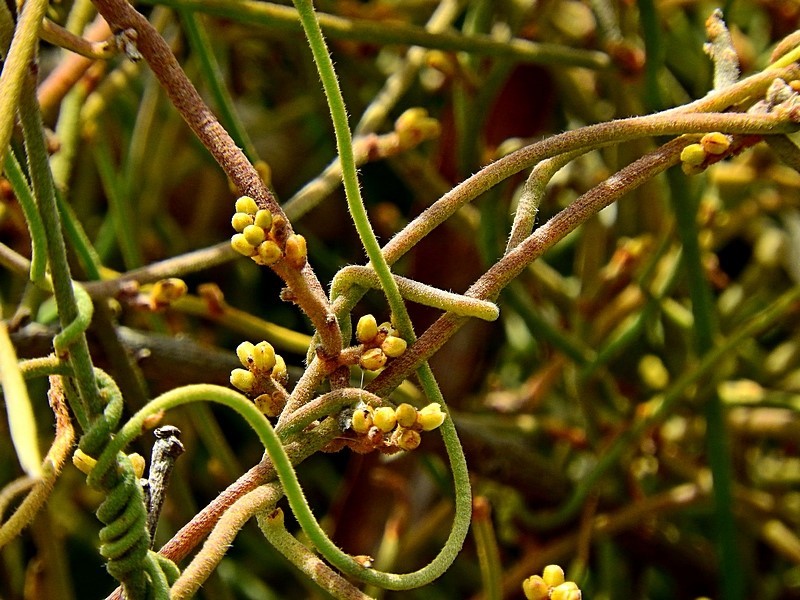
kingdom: Plantae
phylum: Tracheophyta
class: Magnoliopsida
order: Laurales
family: Lauraceae
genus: Cassytha
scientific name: Cassytha pubescens
